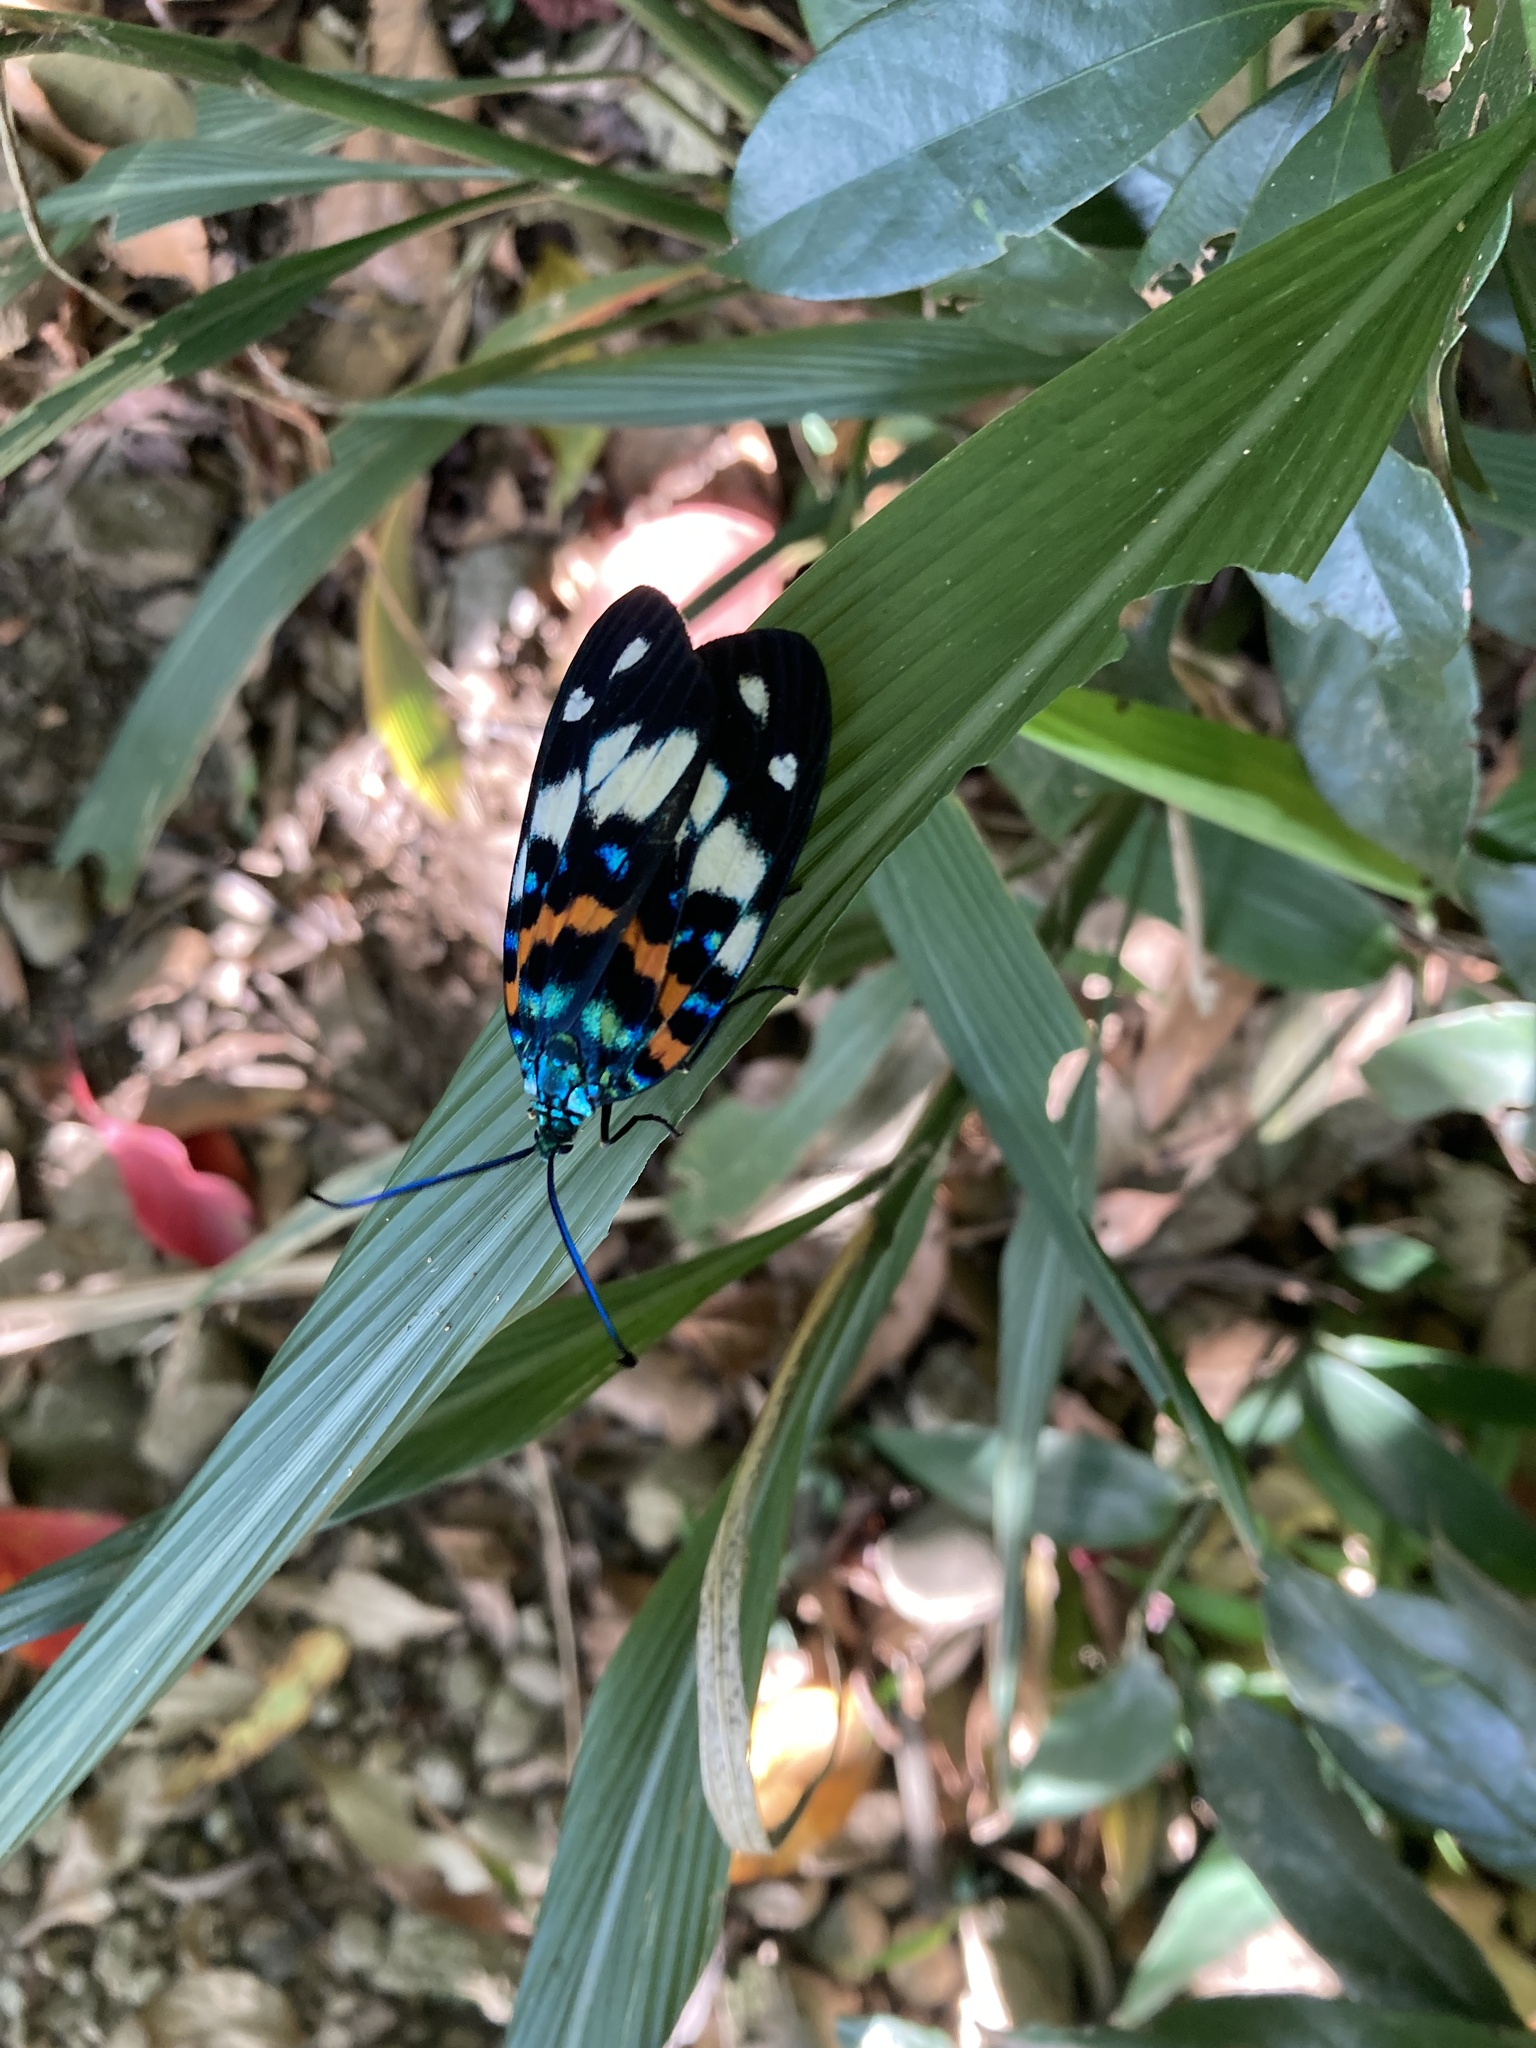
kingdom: Animalia
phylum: Arthropoda
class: Insecta
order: Lepidoptera
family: Zygaenidae
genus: Erasmia
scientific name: Erasmia pulchella
